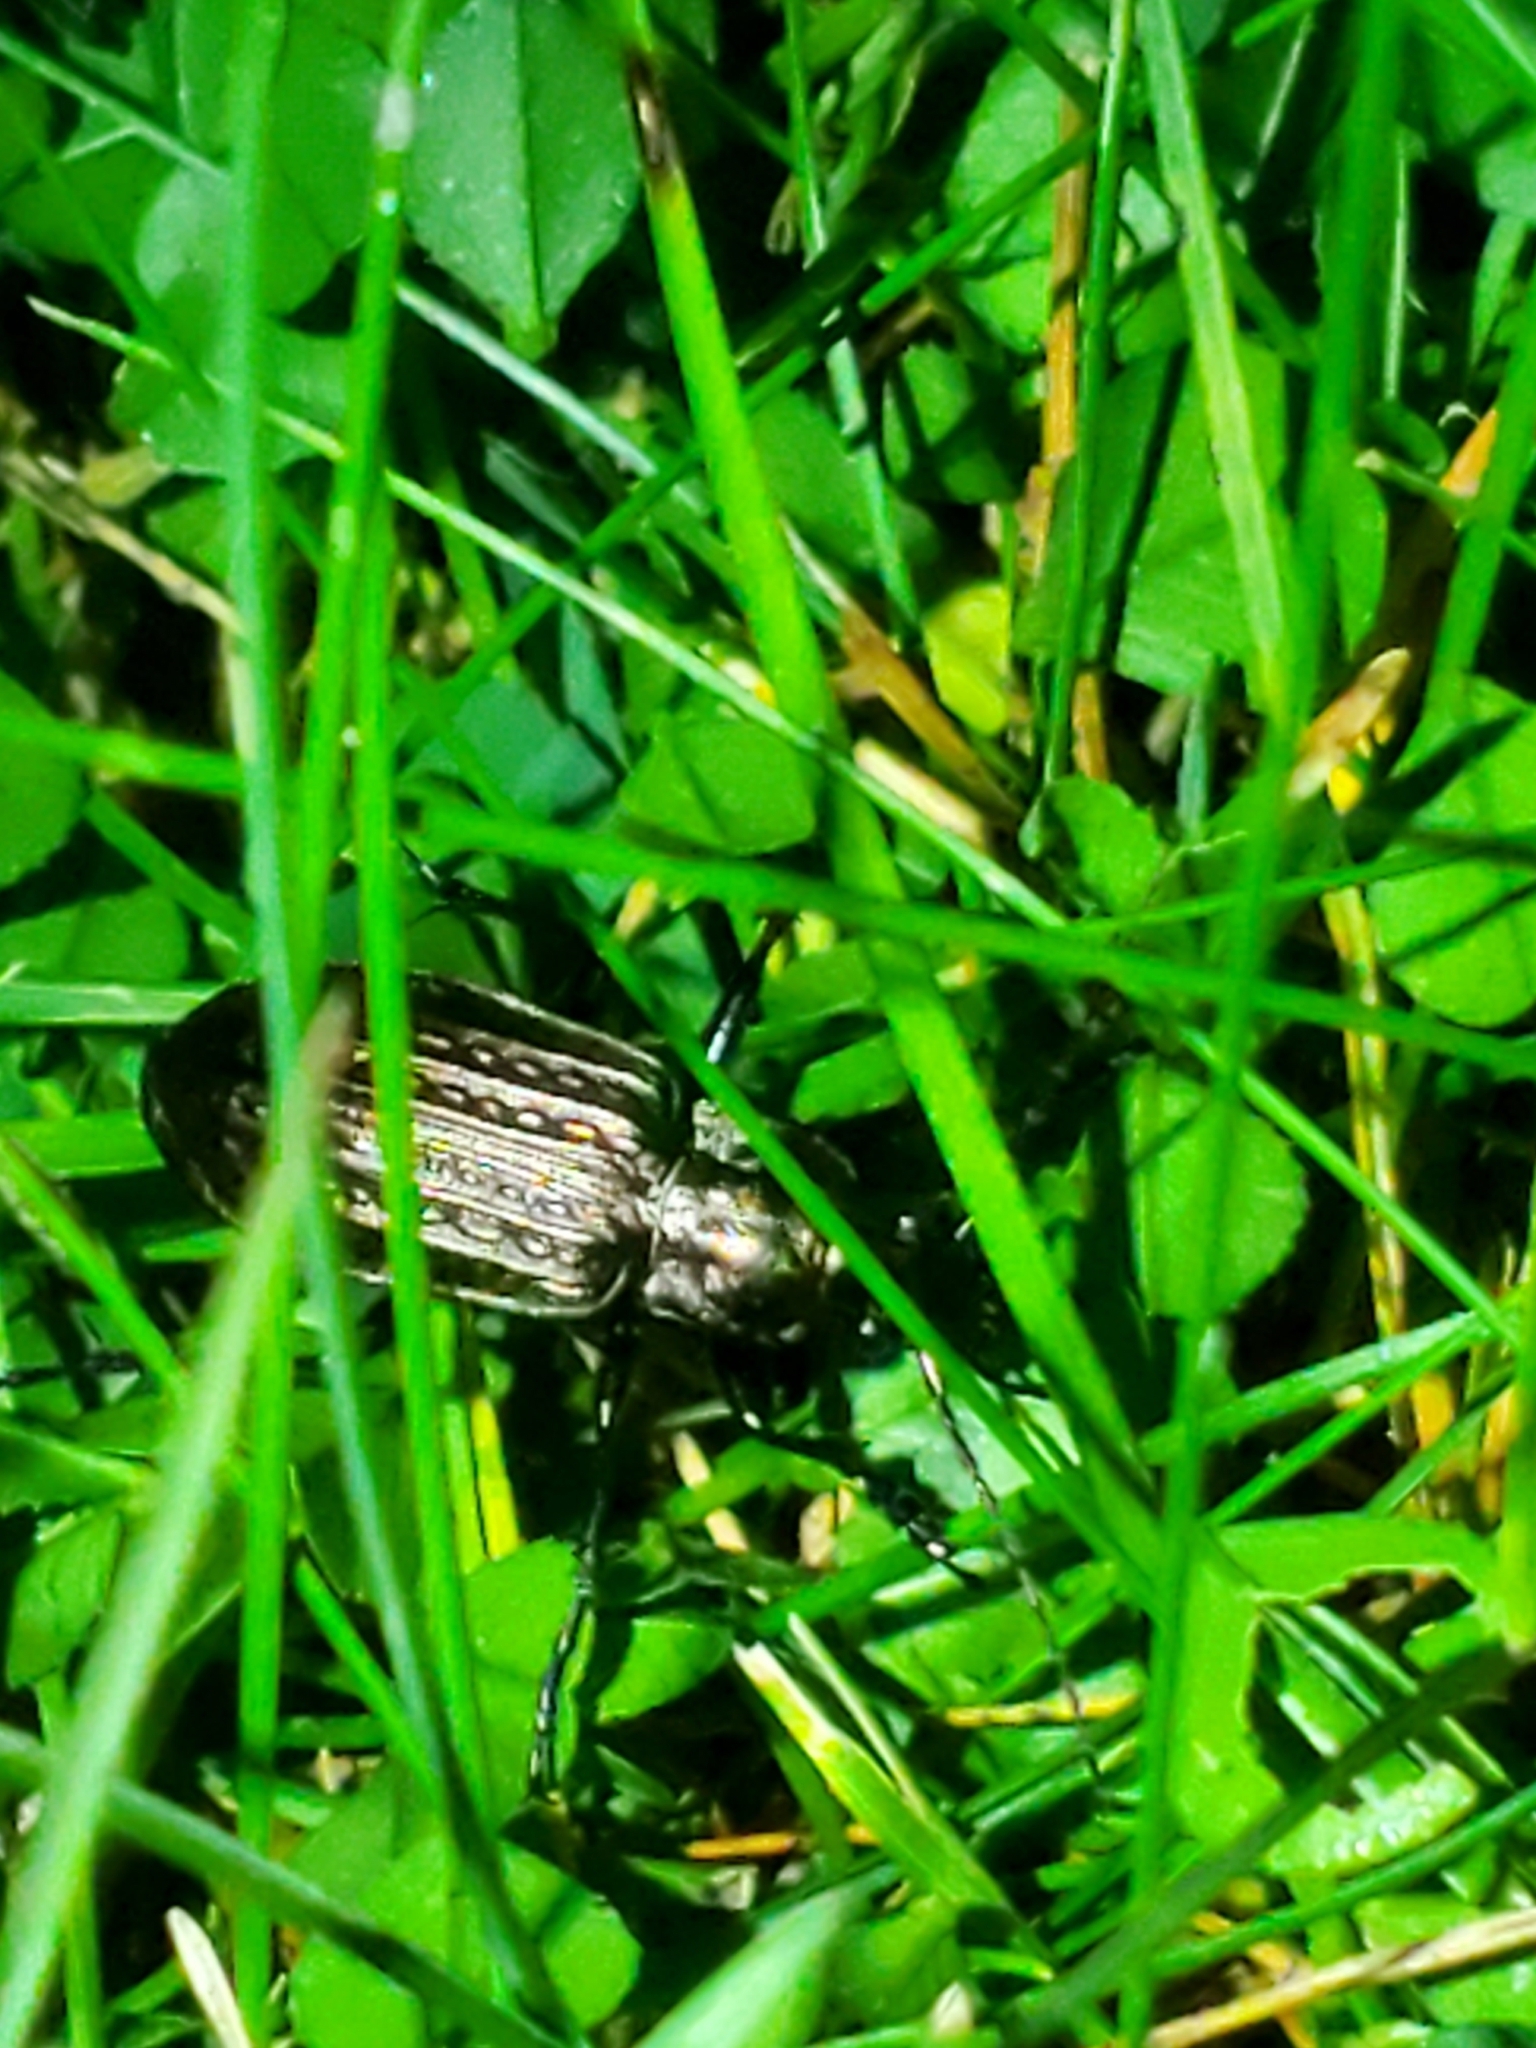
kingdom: Animalia
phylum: Arthropoda
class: Insecta
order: Coleoptera
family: Carabidae
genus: Carabus
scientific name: Carabus granulatus
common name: Granulate ground beetle
